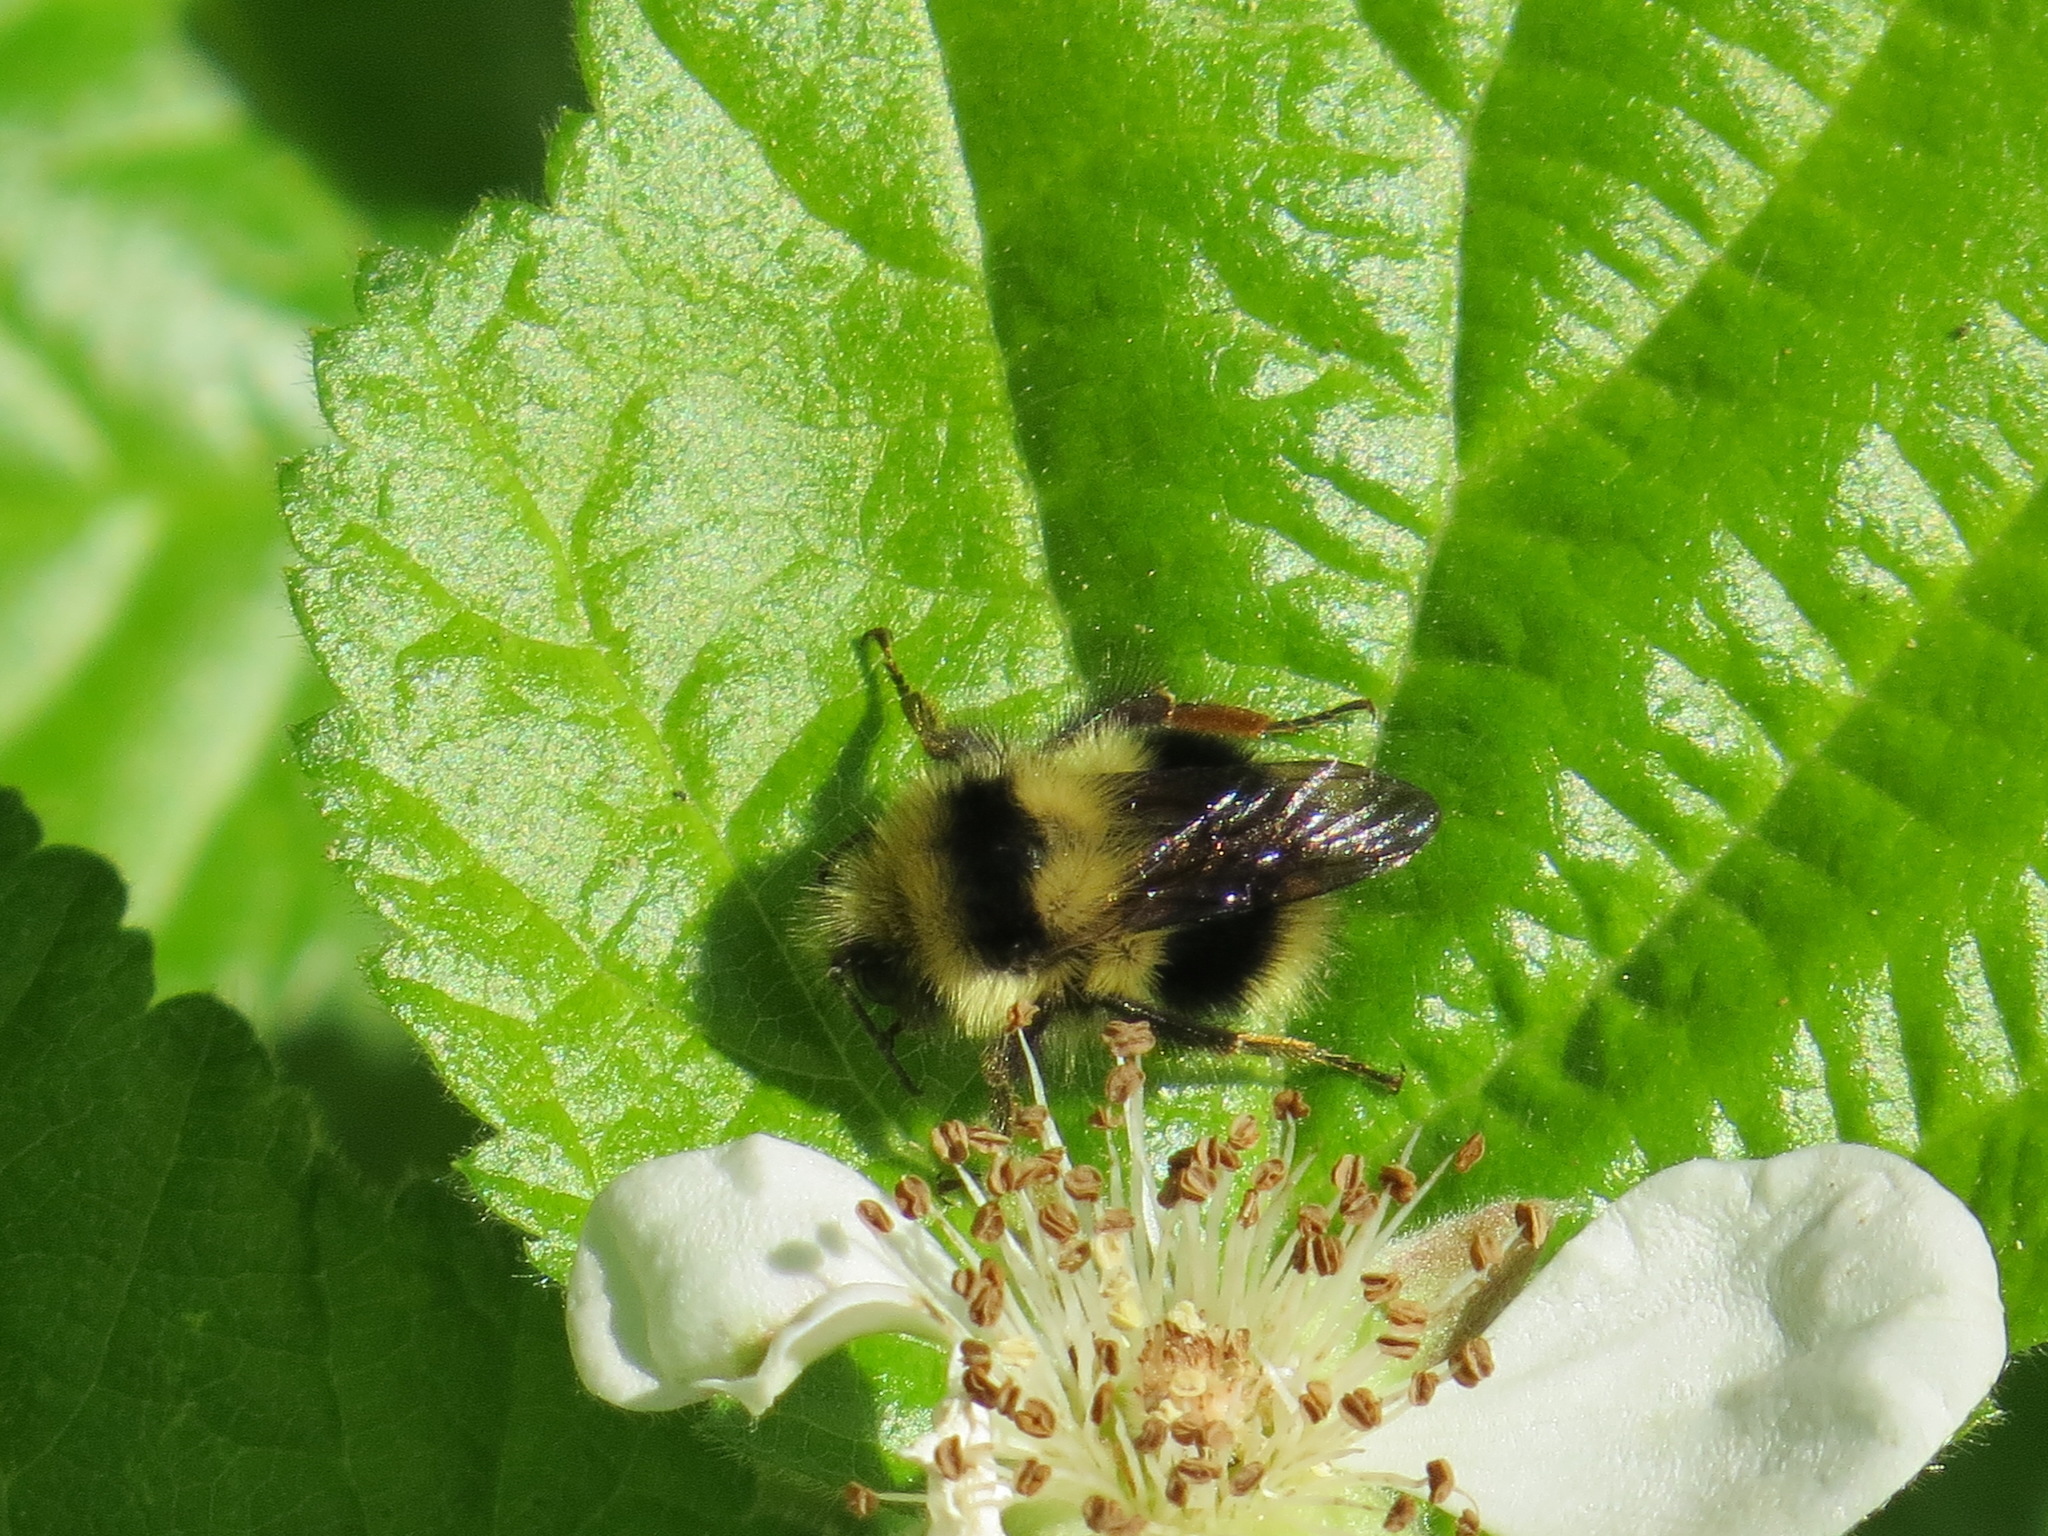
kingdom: Animalia
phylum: Arthropoda
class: Insecta
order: Hymenoptera
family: Apidae
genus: Bombus
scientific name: Bombus melanopygus
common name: Black tail bumble bee
